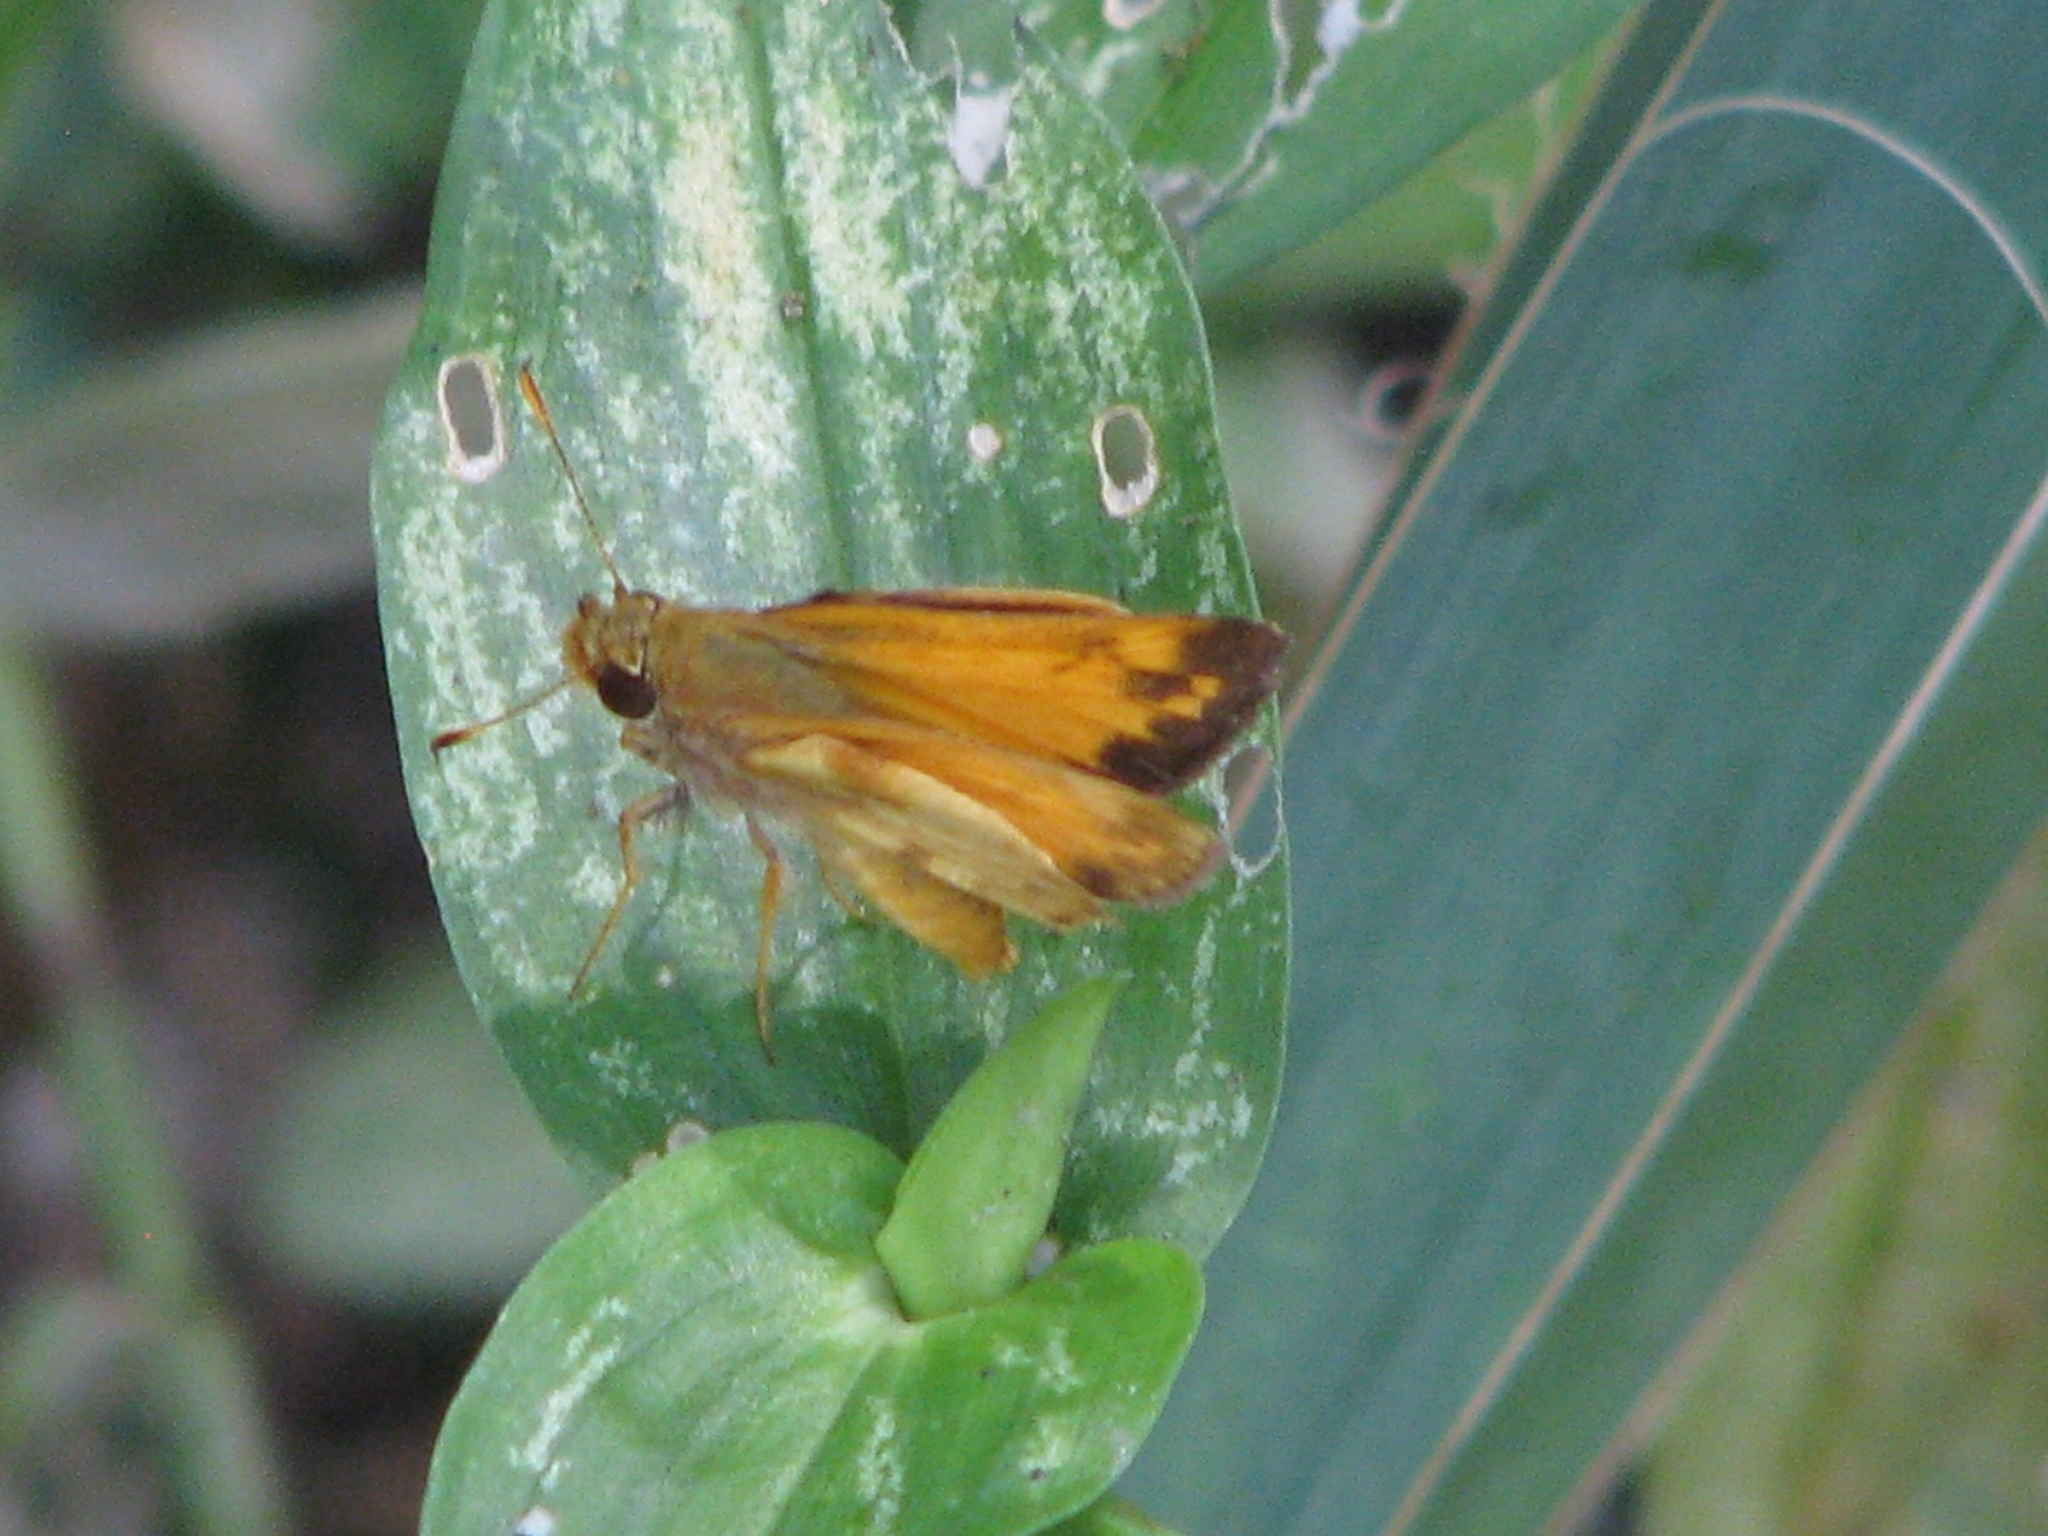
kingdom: Animalia
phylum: Arthropoda
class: Insecta
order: Lepidoptera
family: Hesperiidae
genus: Lon
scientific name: Lon zabulon
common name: Zabulon skipper
